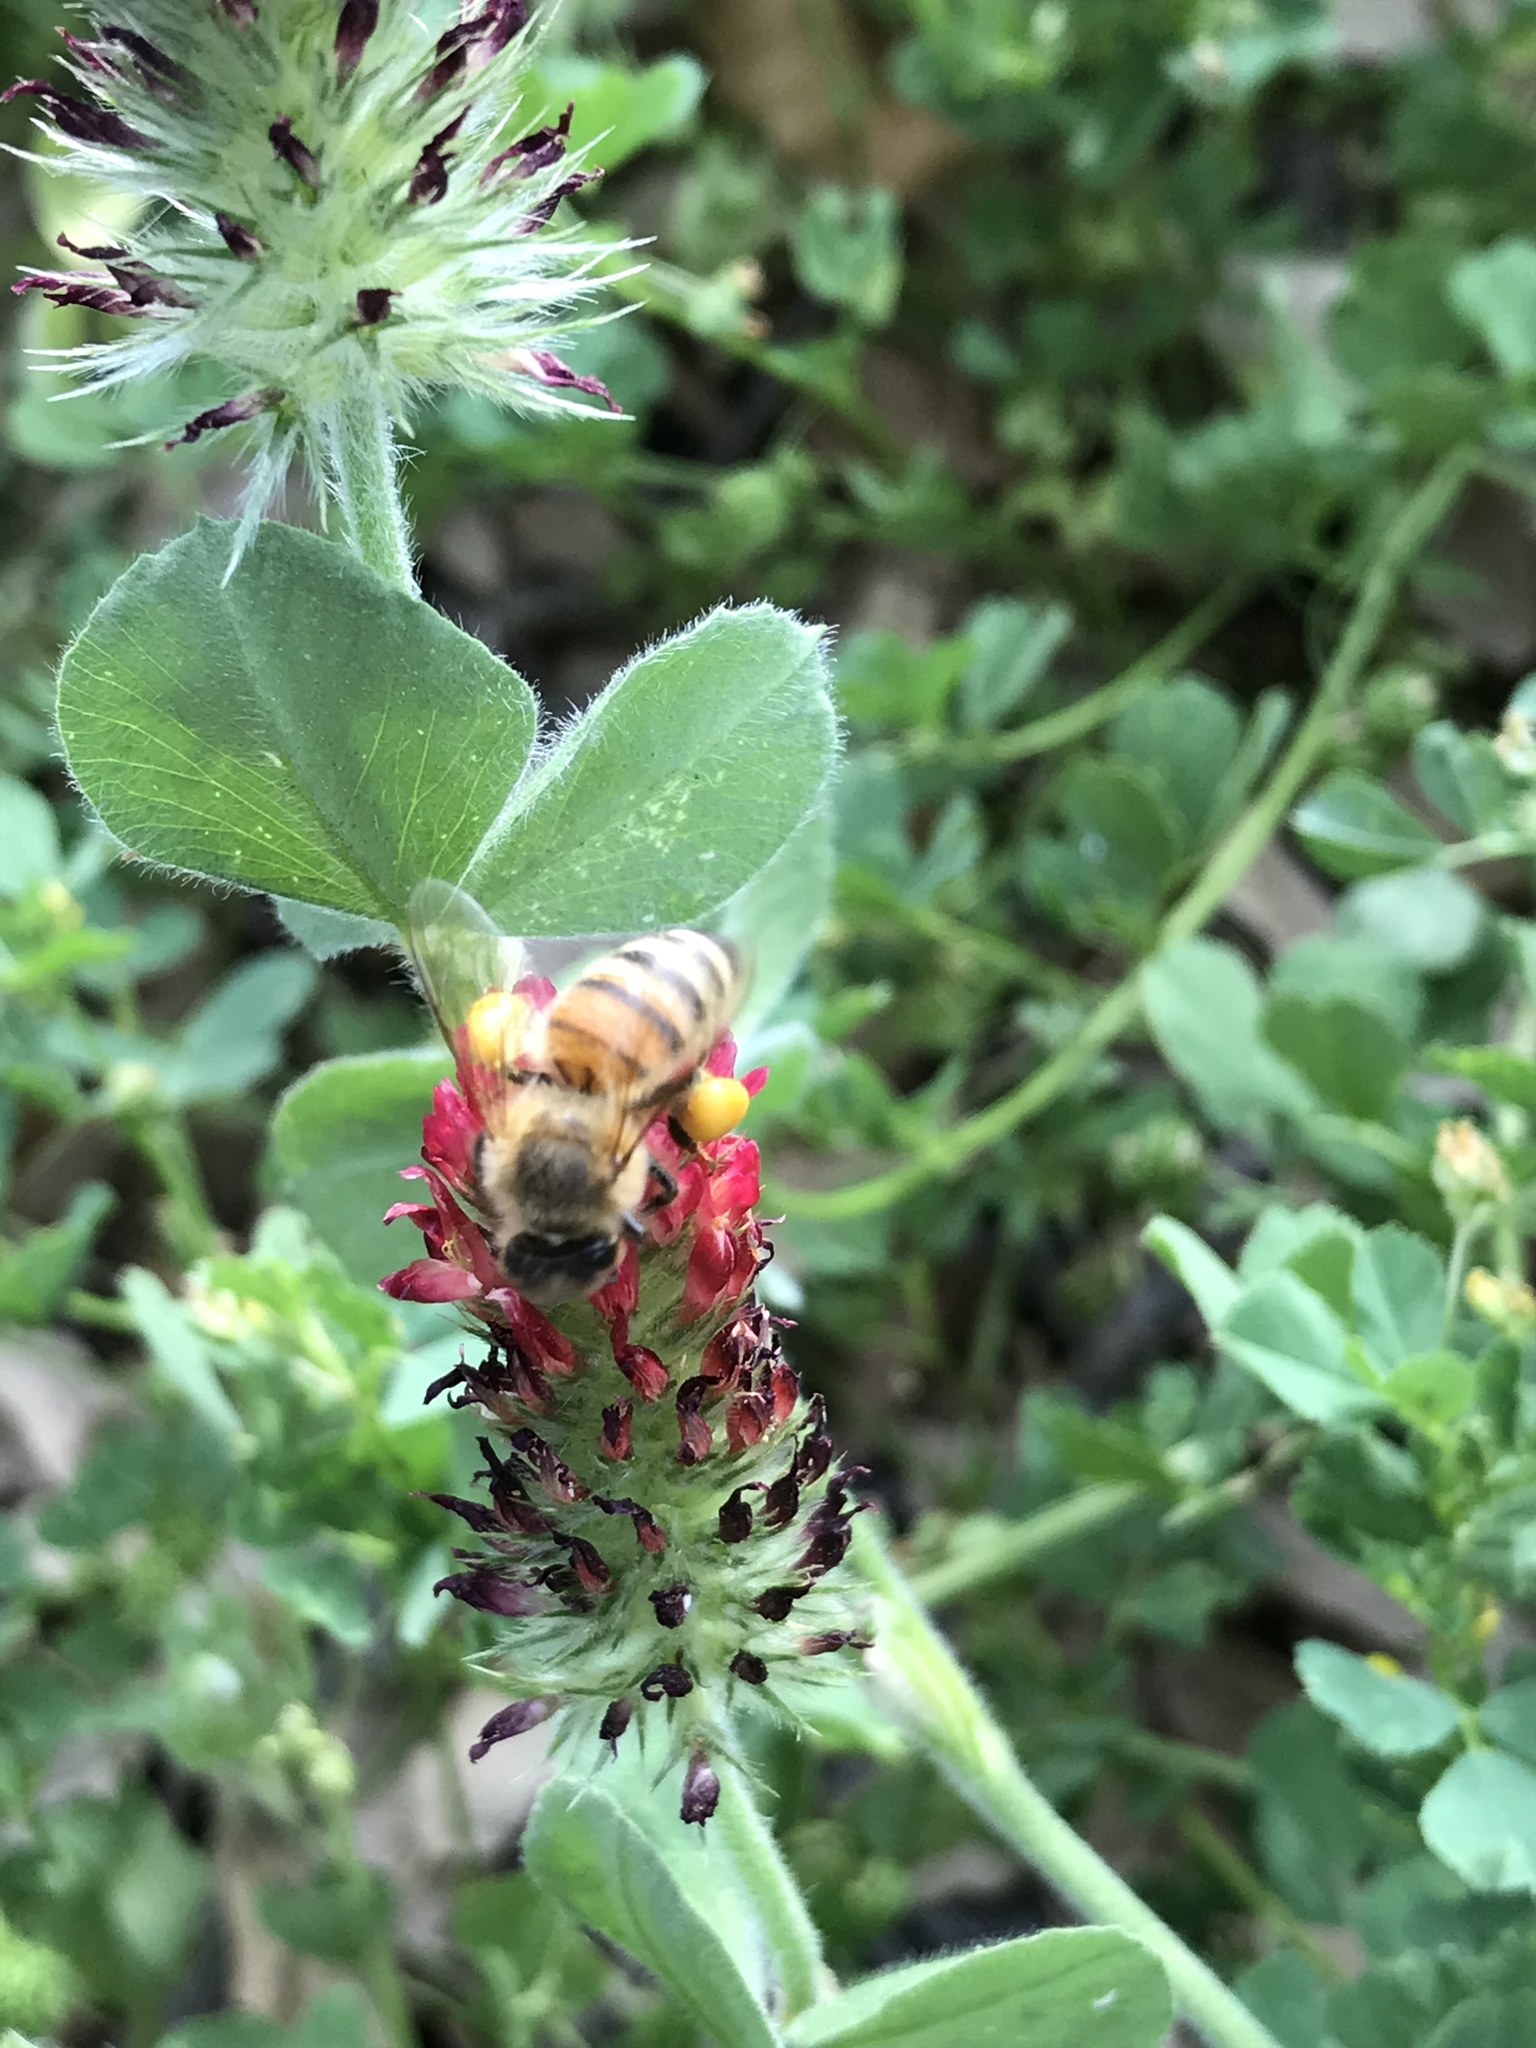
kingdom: Animalia
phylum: Arthropoda
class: Insecta
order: Hymenoptera
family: Apidae
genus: Apis
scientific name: Apis mellifera
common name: Honey bee
